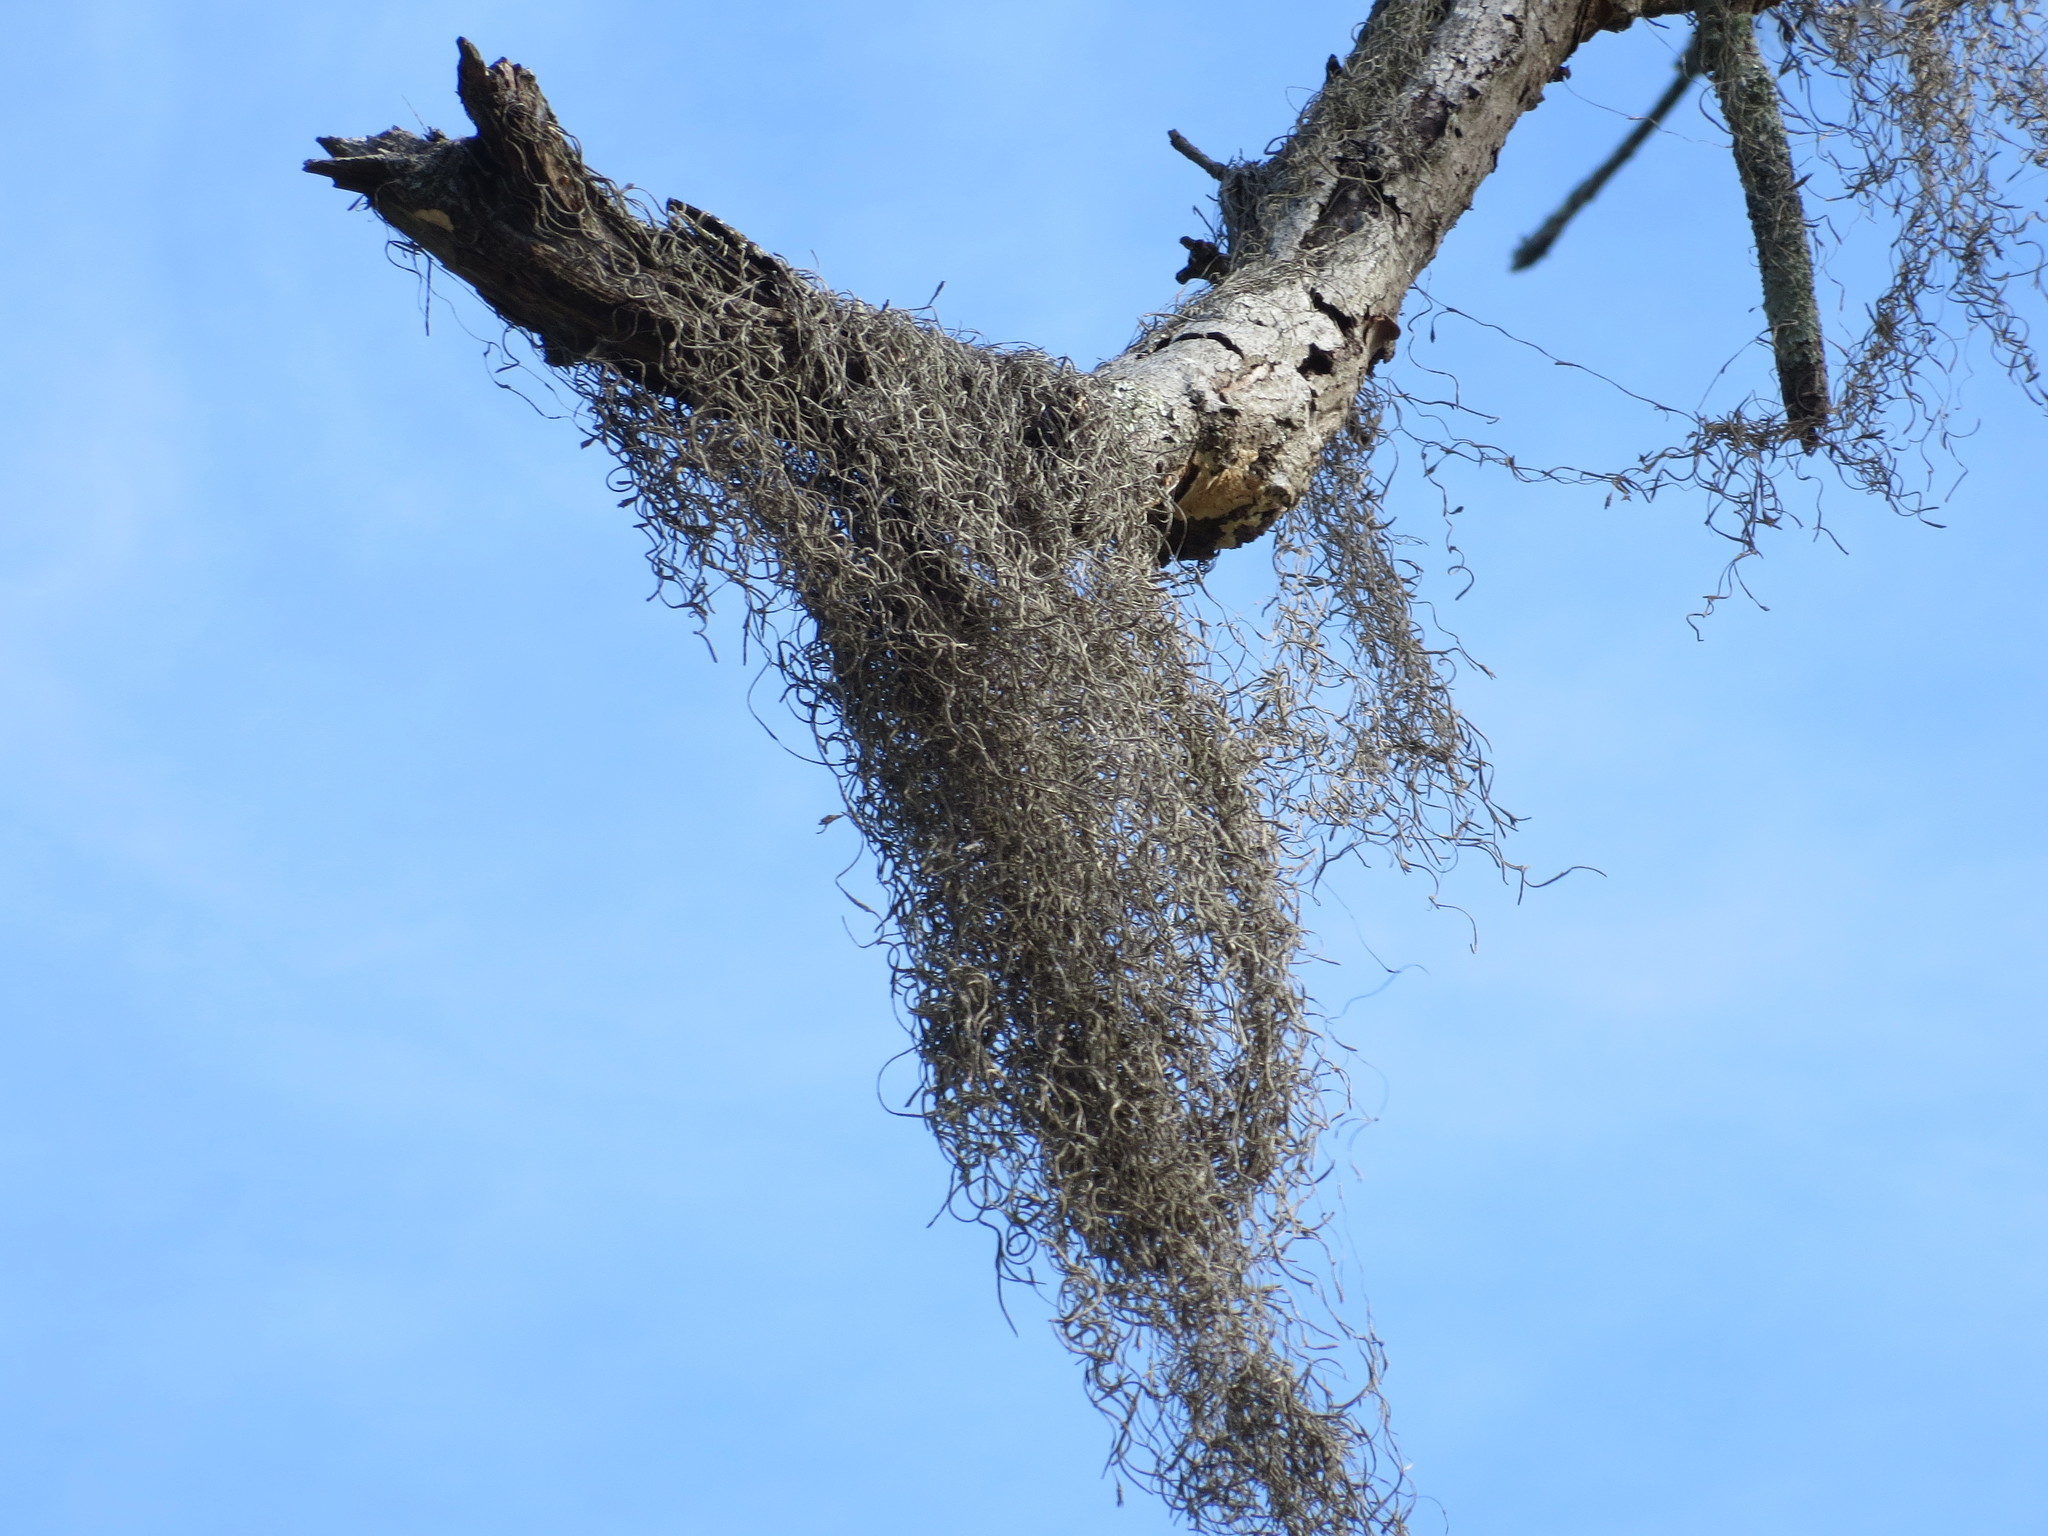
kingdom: Plantae
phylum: Tracheophyta
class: Liliopsida
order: Poales
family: Bromeliaceae
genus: Tillandsia
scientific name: Tillandsia usneoides
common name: Spanish moss
